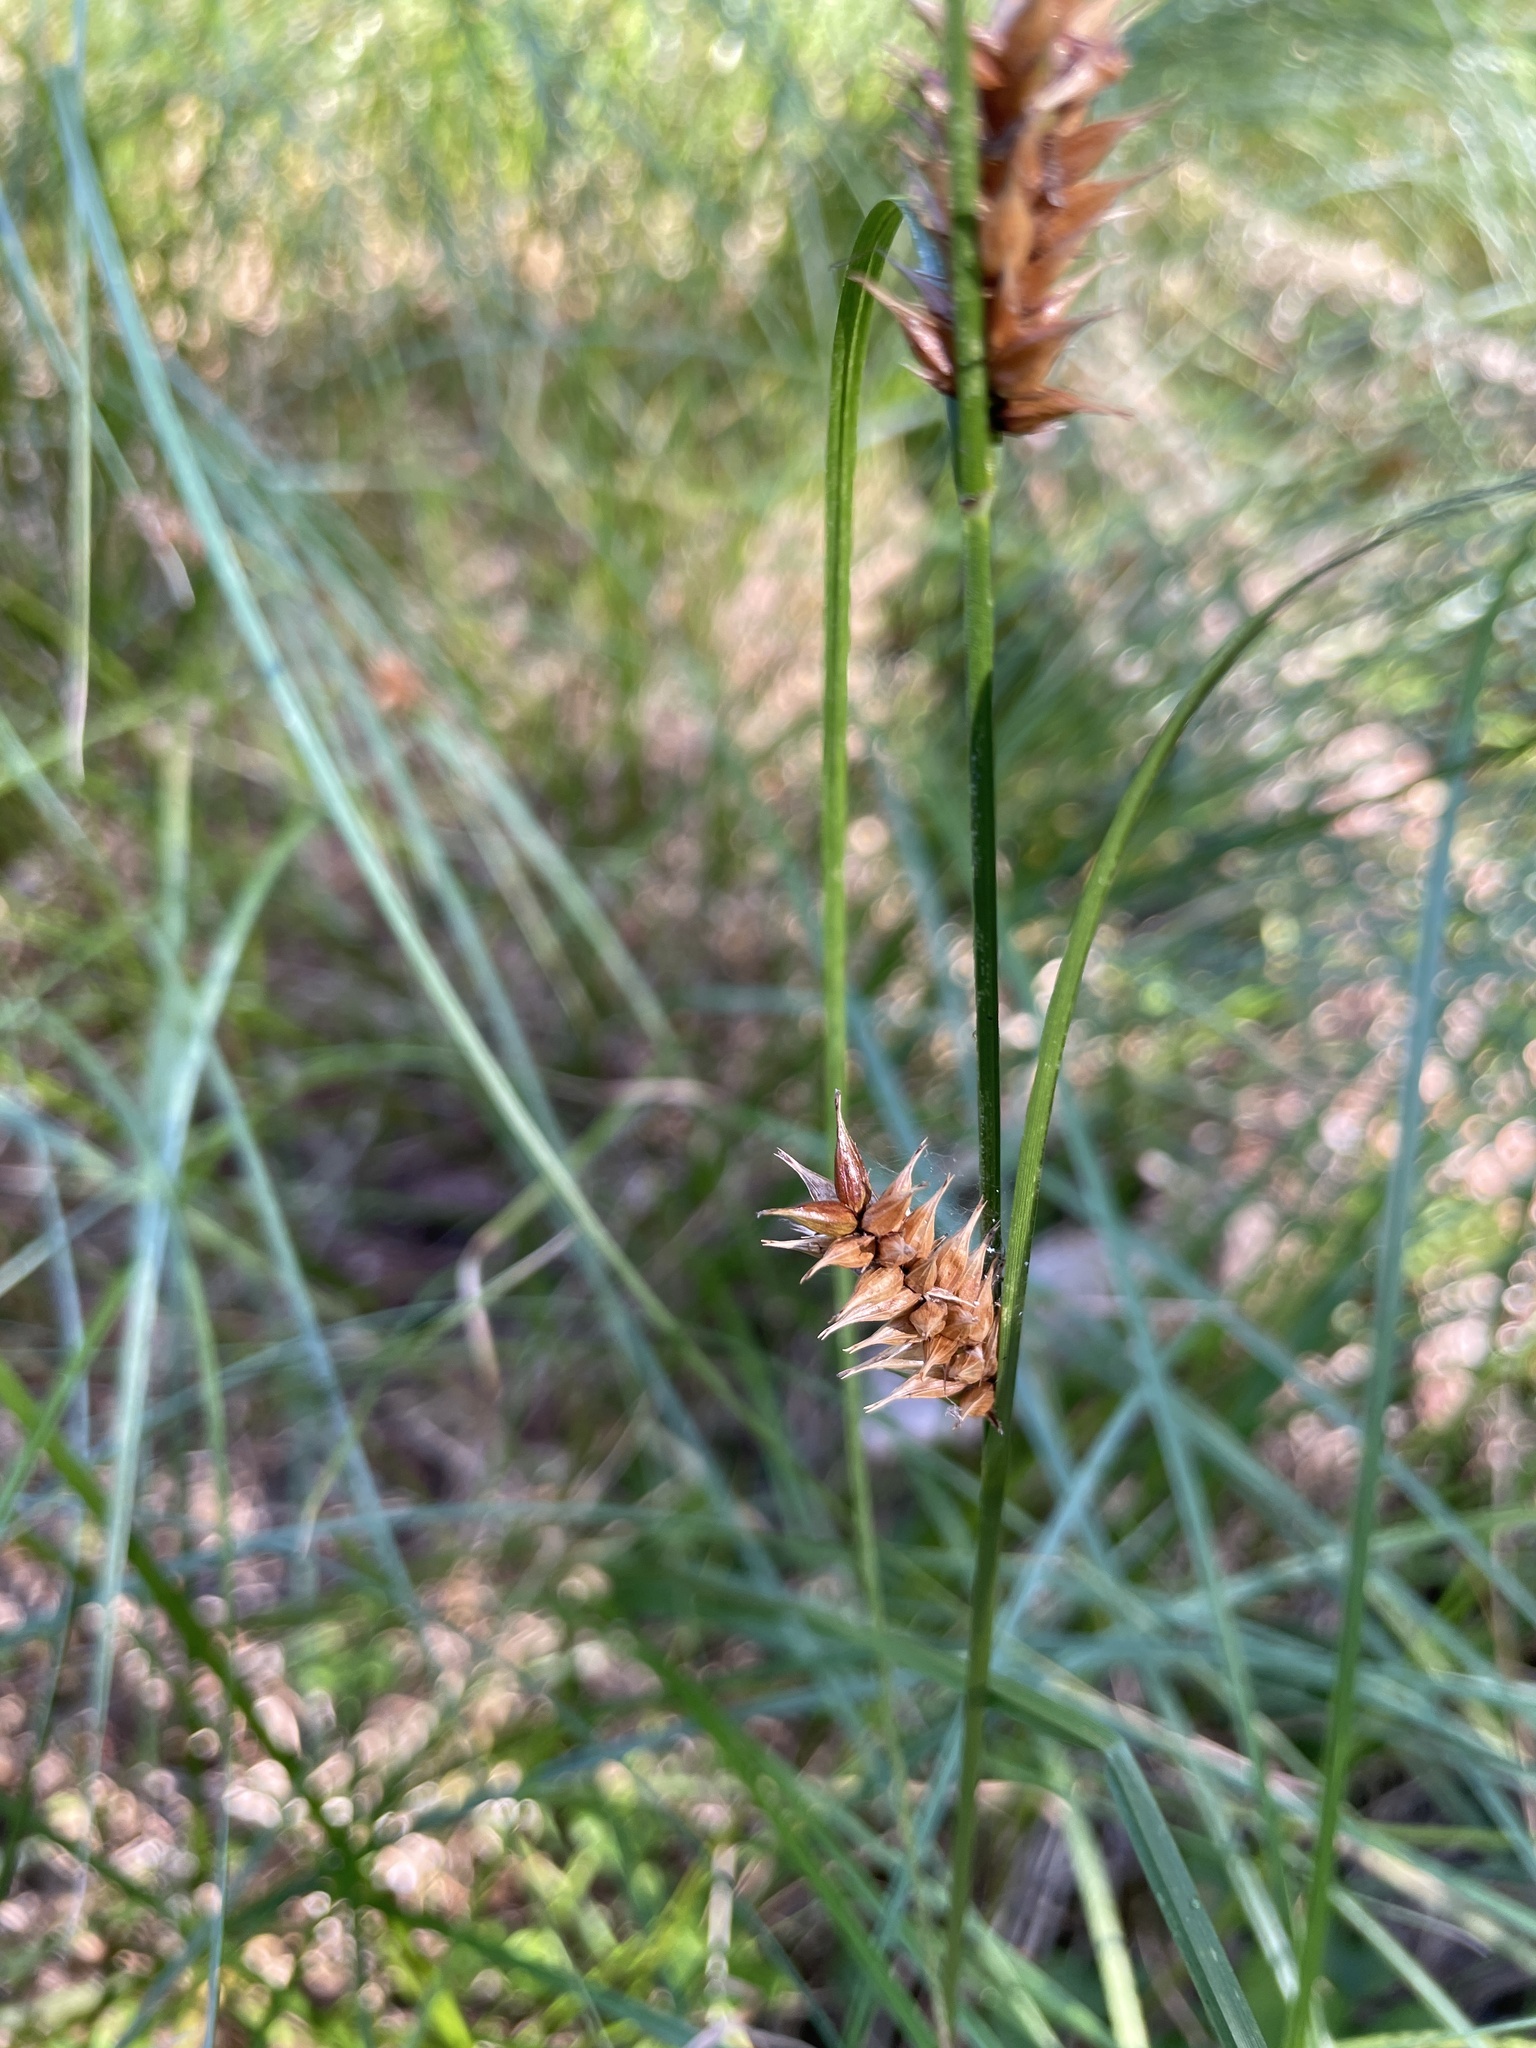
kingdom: Plantae
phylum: Tracheophyta
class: Liliopsida
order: Poales
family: Cyperaceae
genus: Carex
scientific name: Carex vesicaria
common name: Bladder-sedge
